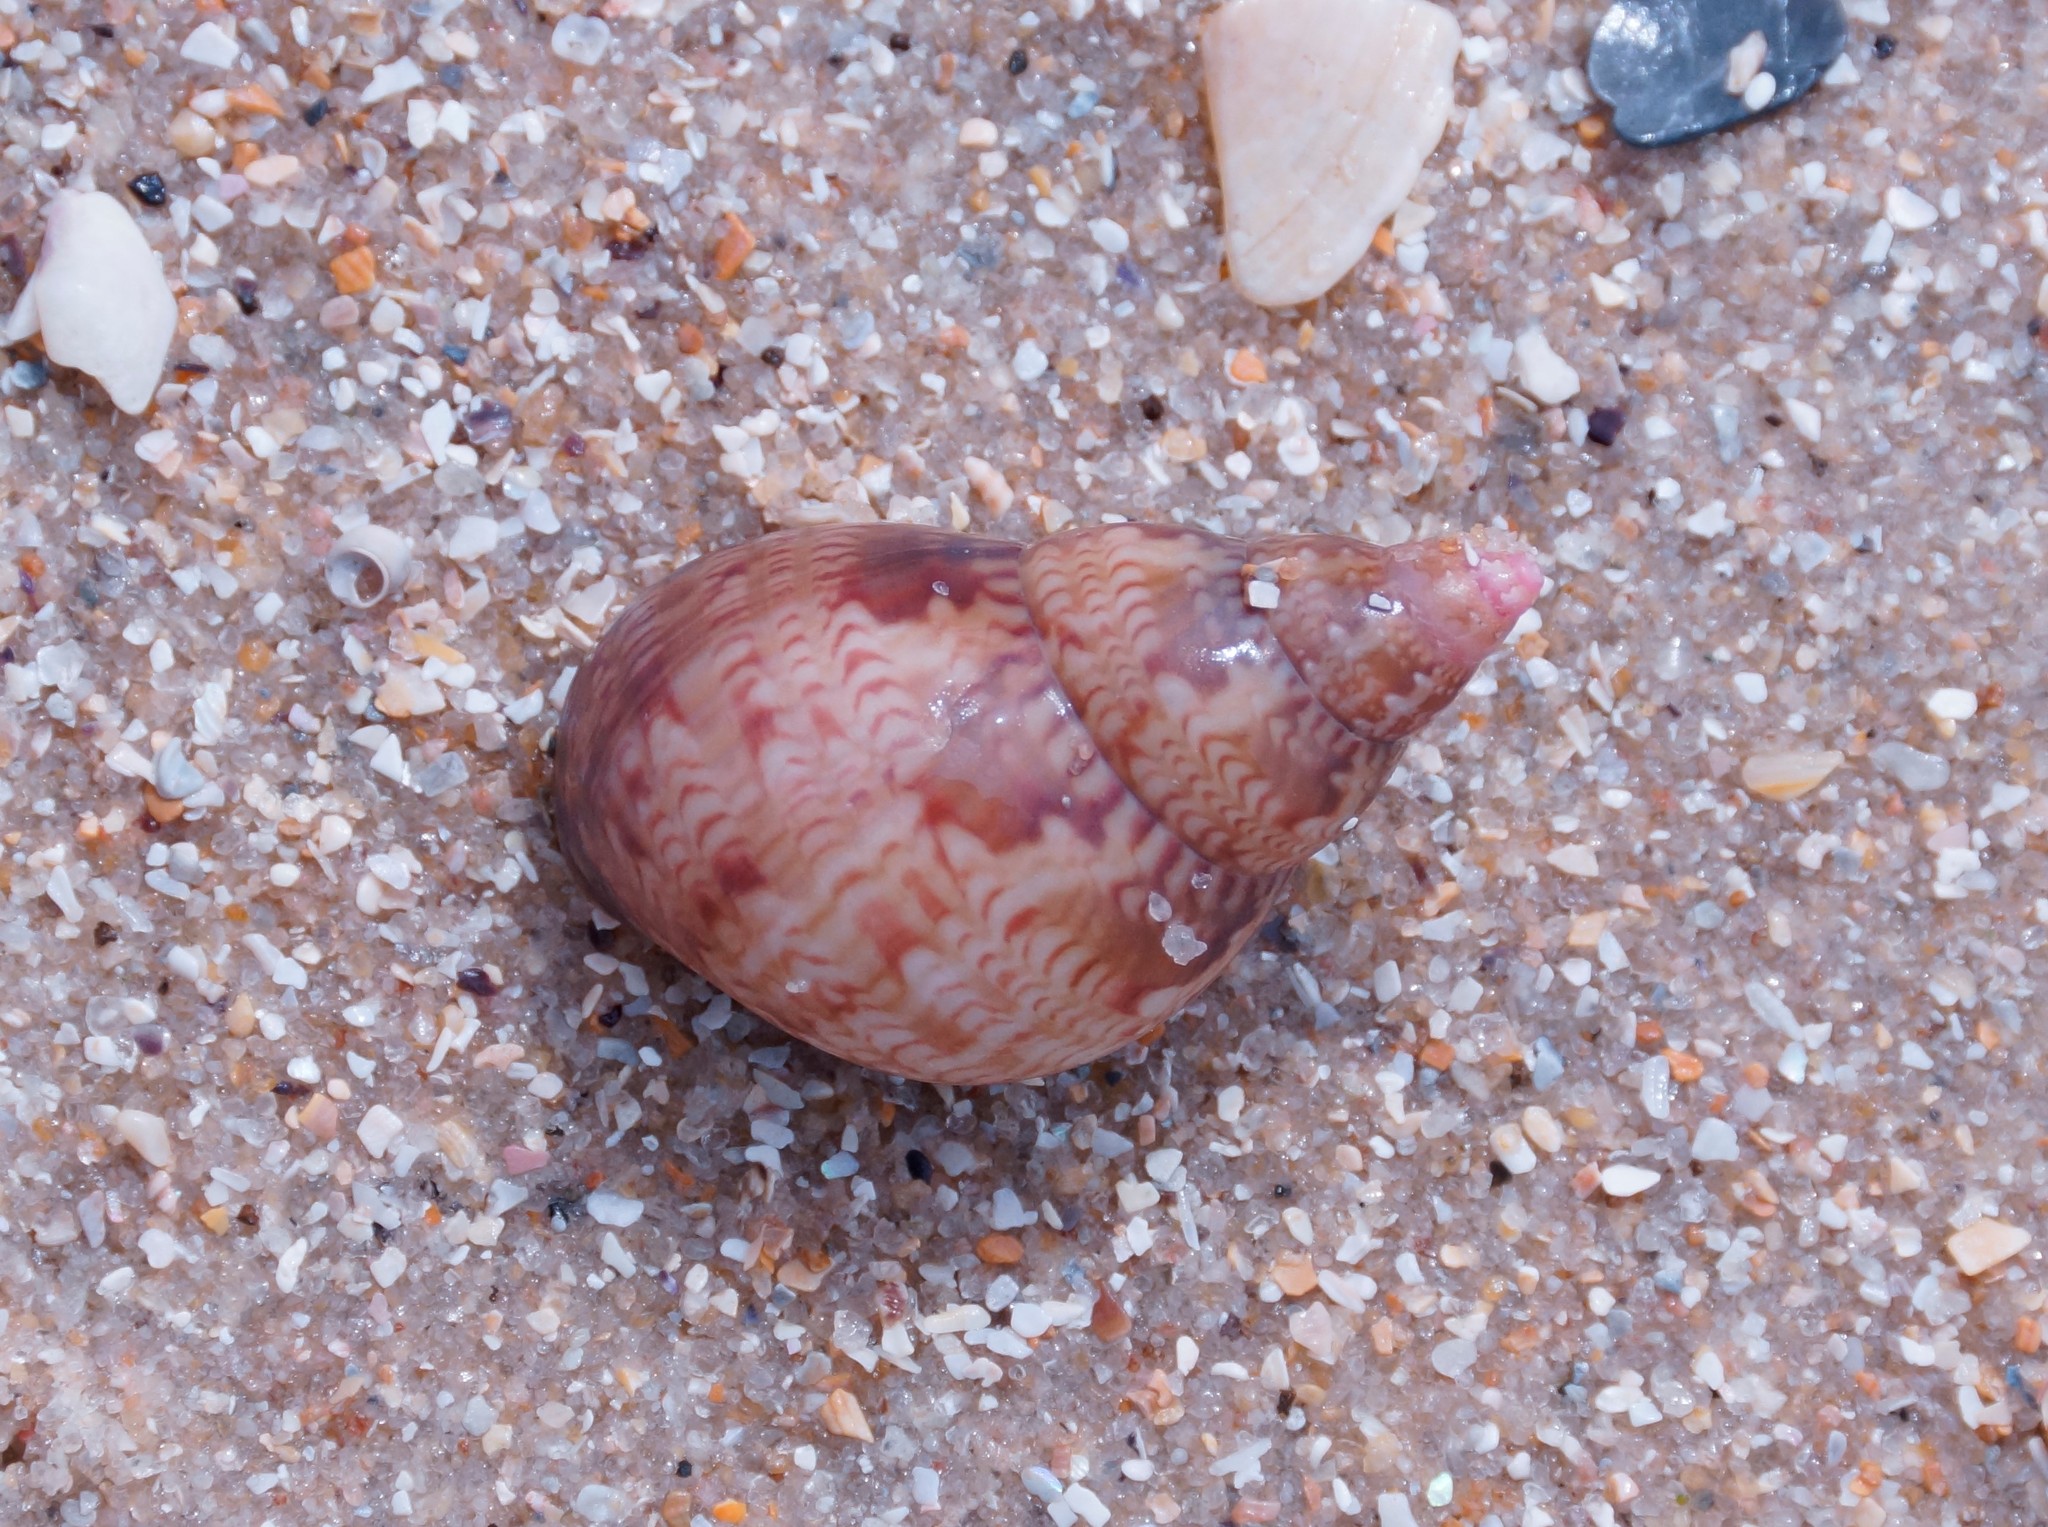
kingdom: Animalia
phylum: Mollusca
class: Gastropoda
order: Trochida
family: Phasianellidae
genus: Phasianella
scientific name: Phasianella australis
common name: Painted lady
